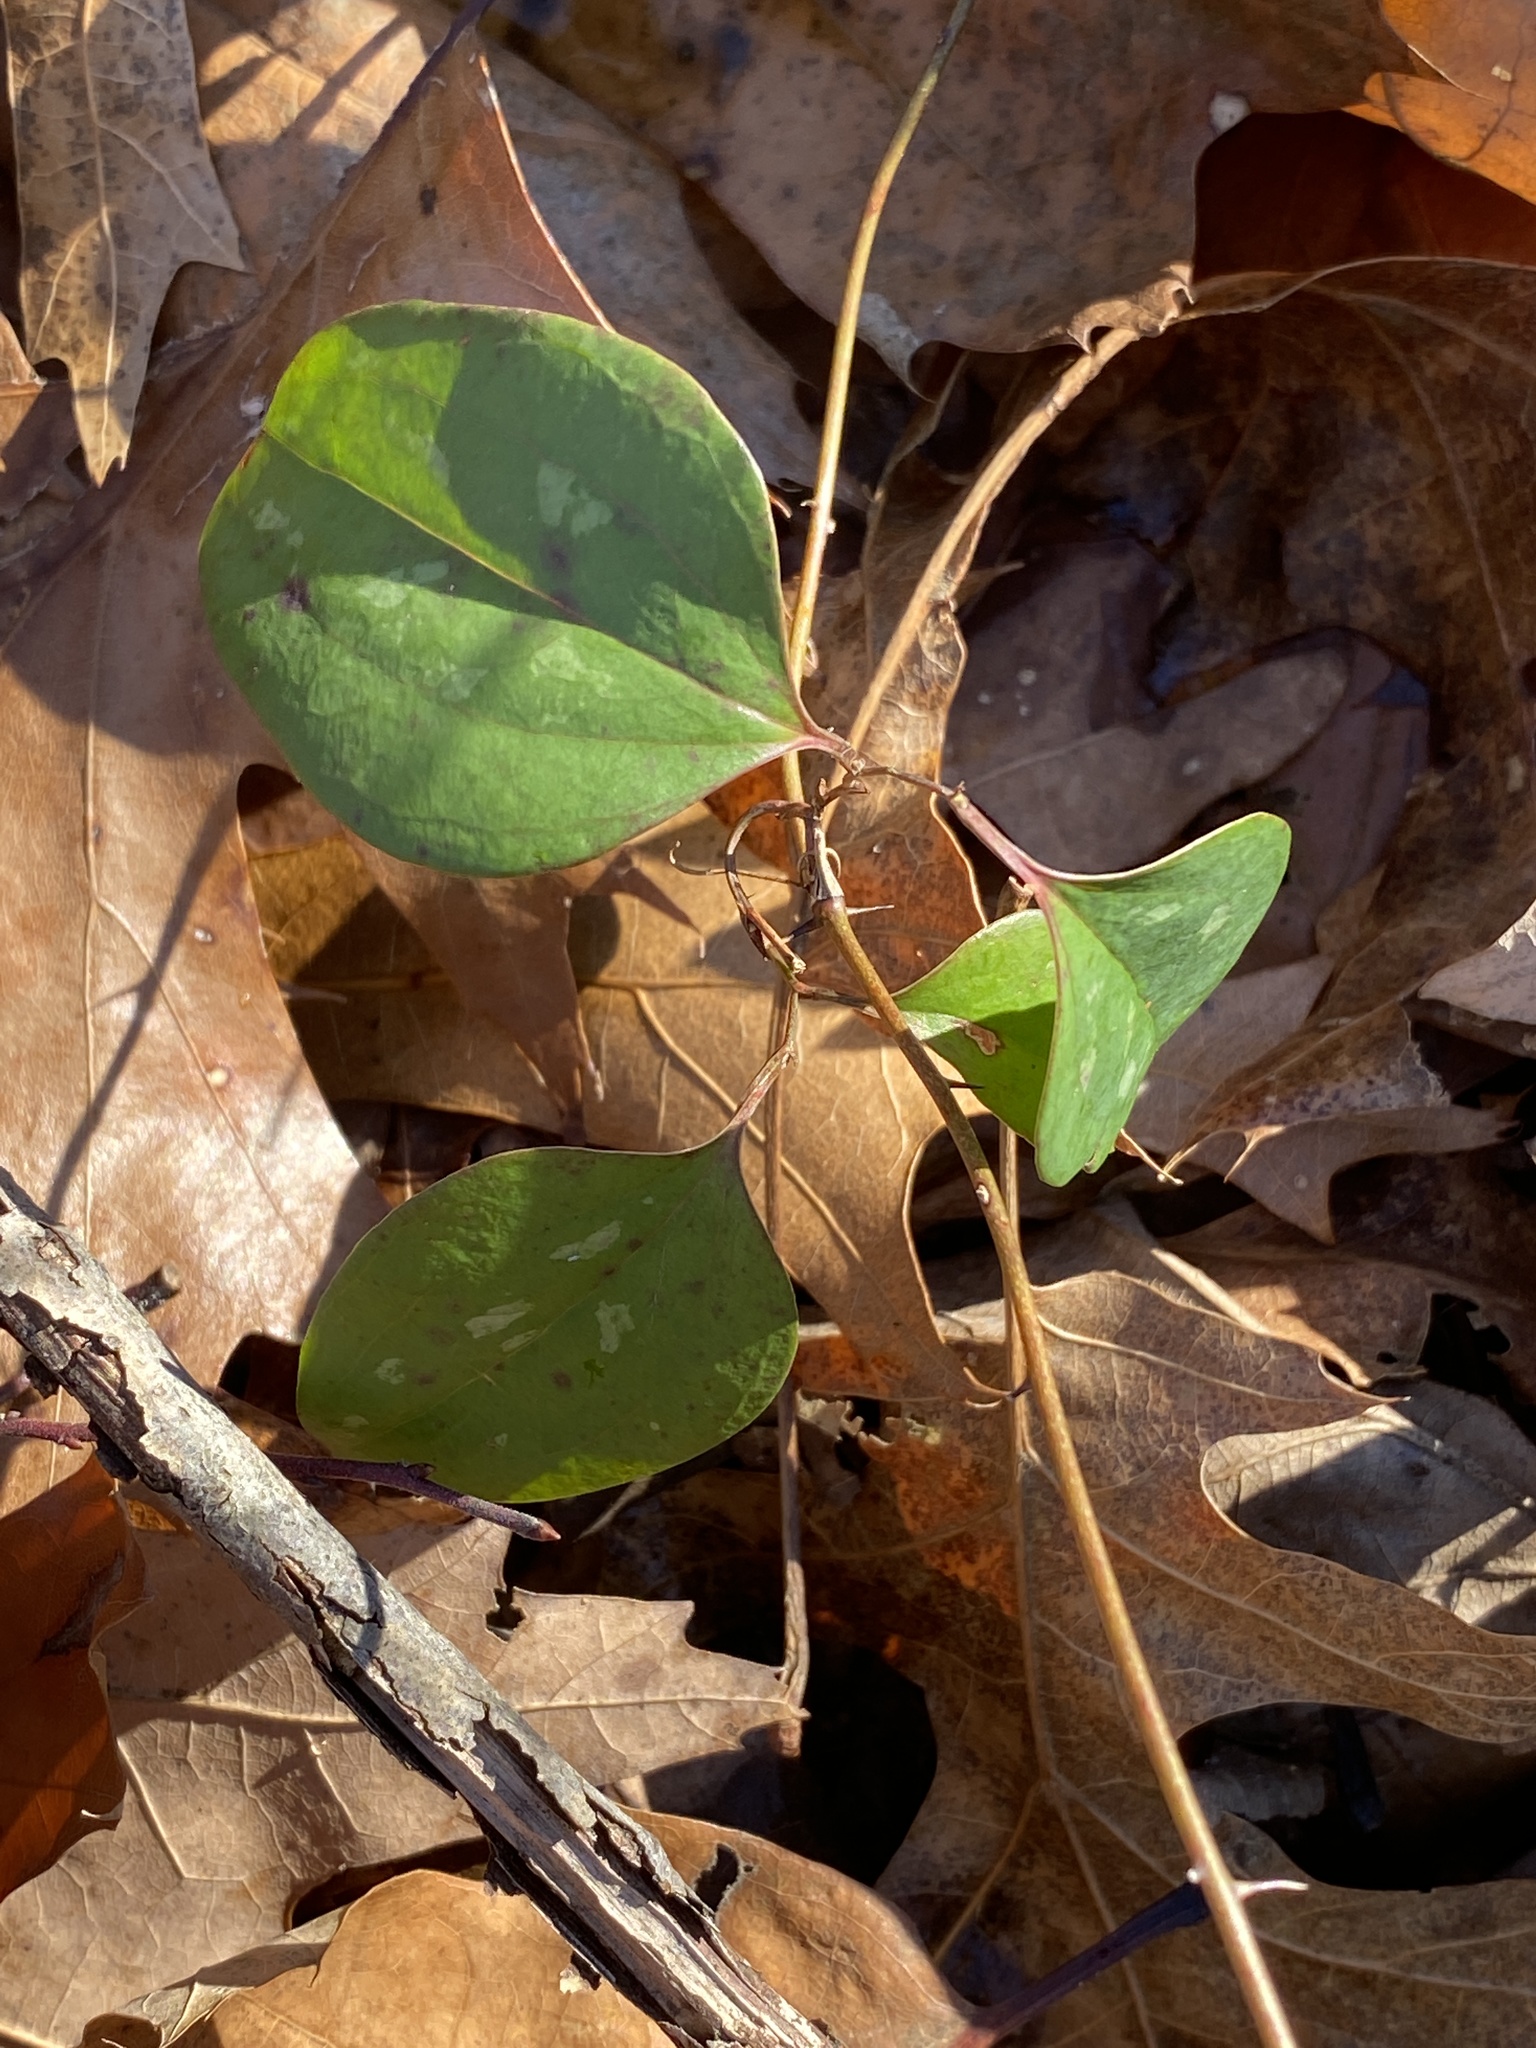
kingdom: Plantae
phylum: Tracheophyta
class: Liliopsida
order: Liliales
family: Smilacaceae
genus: Smilax
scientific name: Smilax glauca
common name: Cat greenbrier
